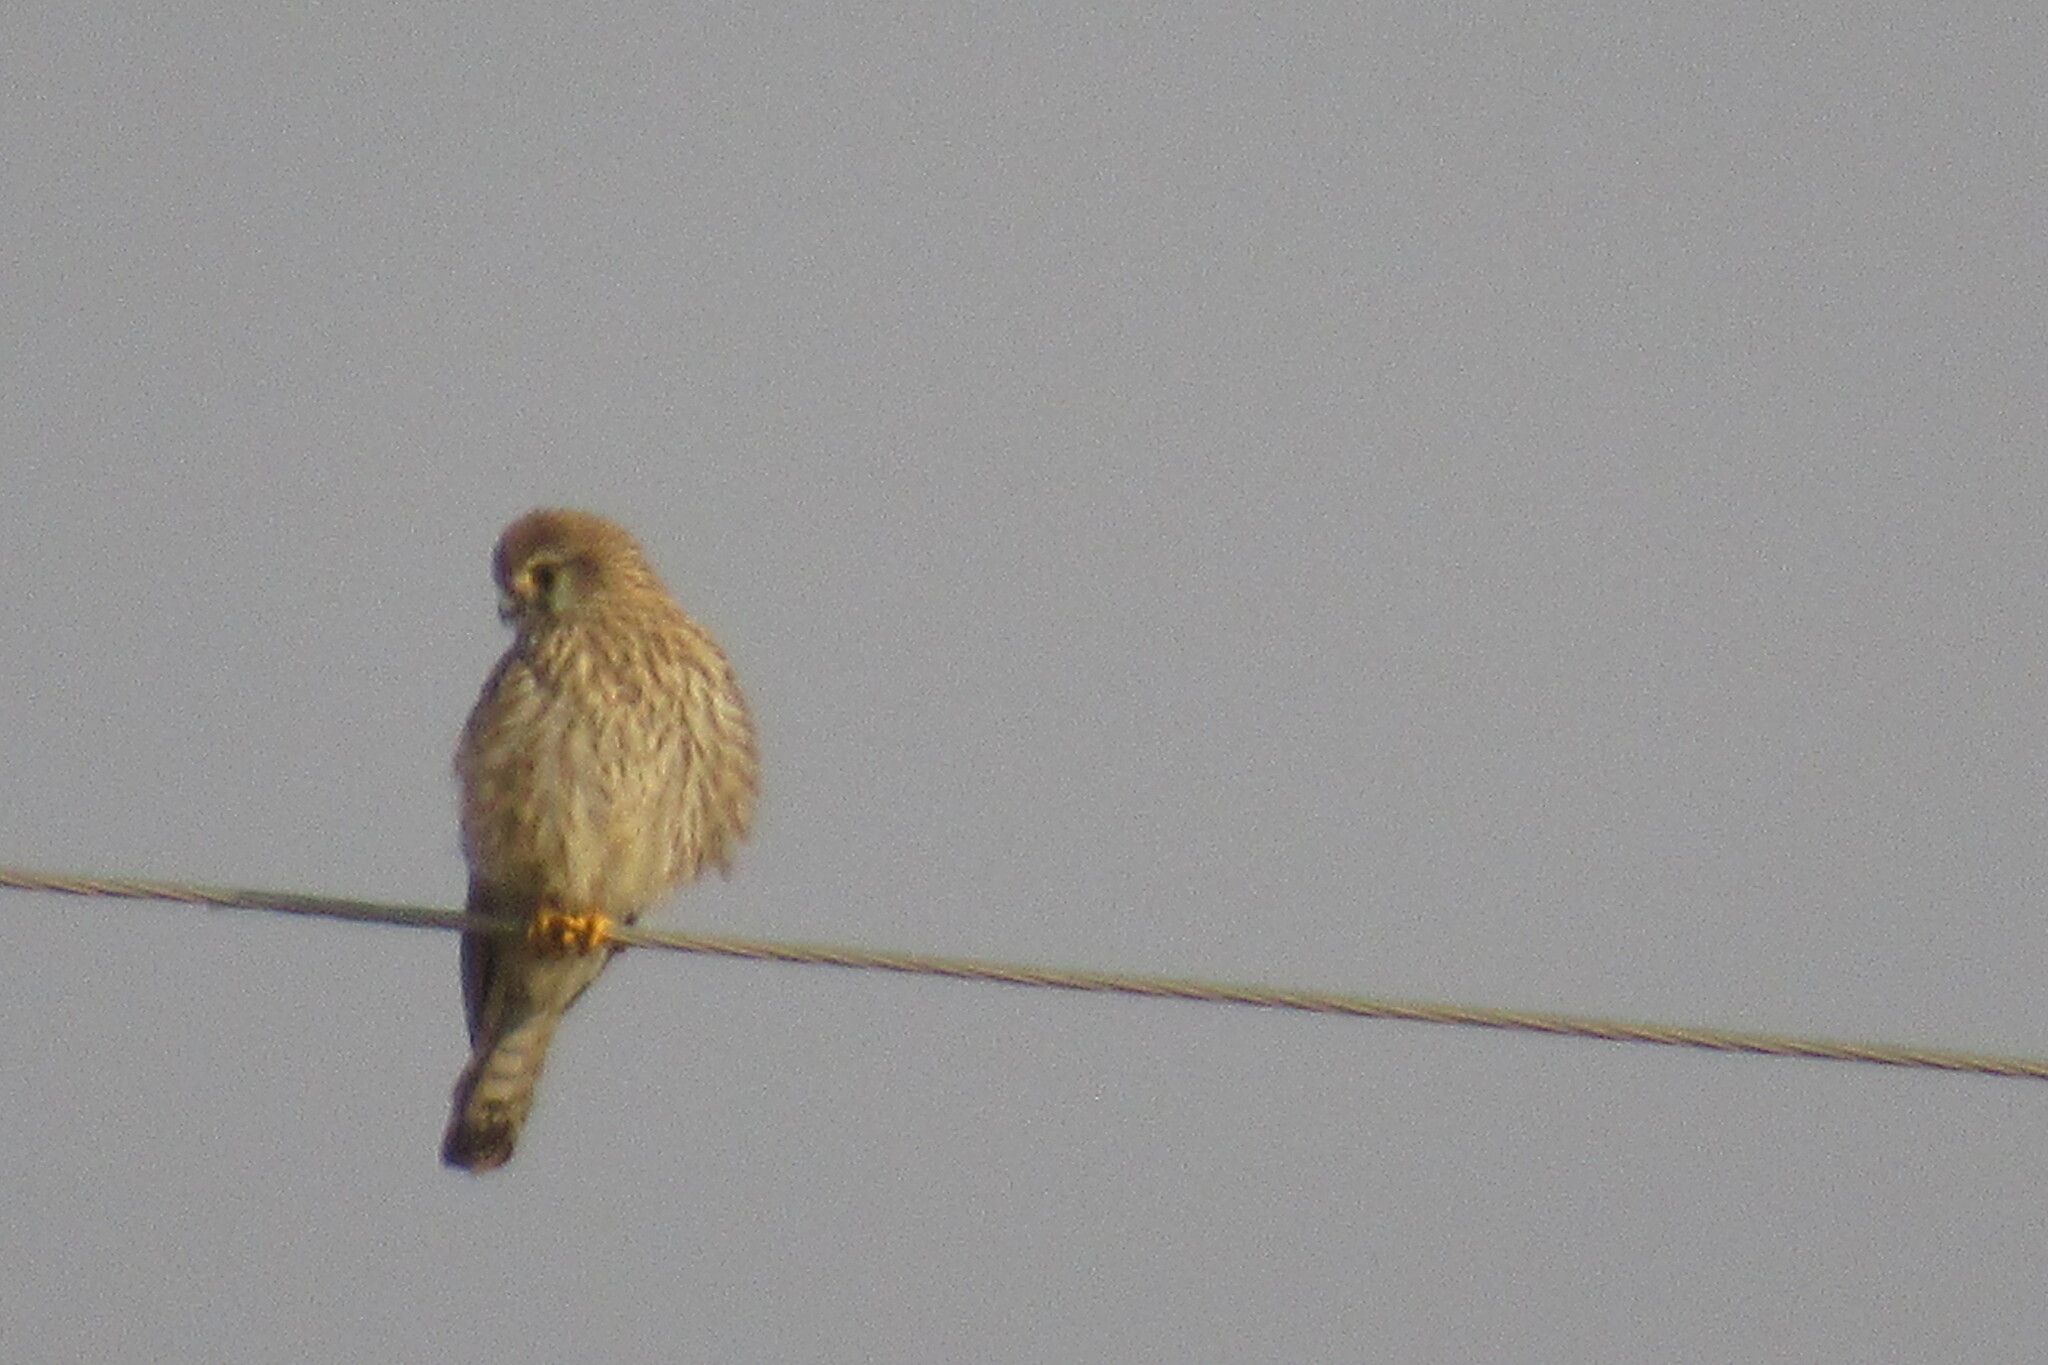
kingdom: Animalia
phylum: Chordata
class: Aves
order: Falconiformes
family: Falconidae
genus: Falco
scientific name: Falco tinnunculus
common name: Common kestrel
